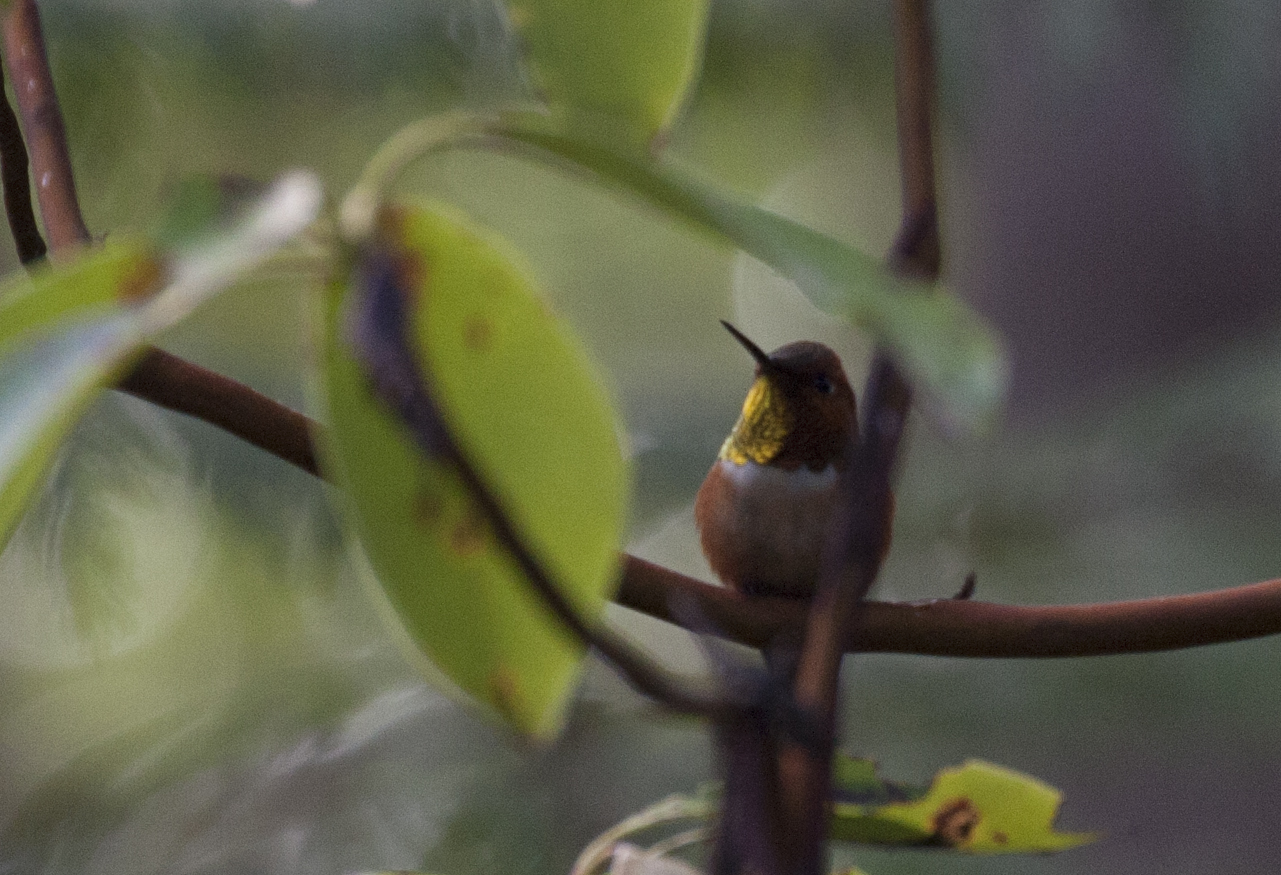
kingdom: Animalia
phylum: Chordata
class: Aves
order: Apodiformes
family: Trochilidae
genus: Selasphorus
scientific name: Selasphorus rufus
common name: Rufous hummingbird
